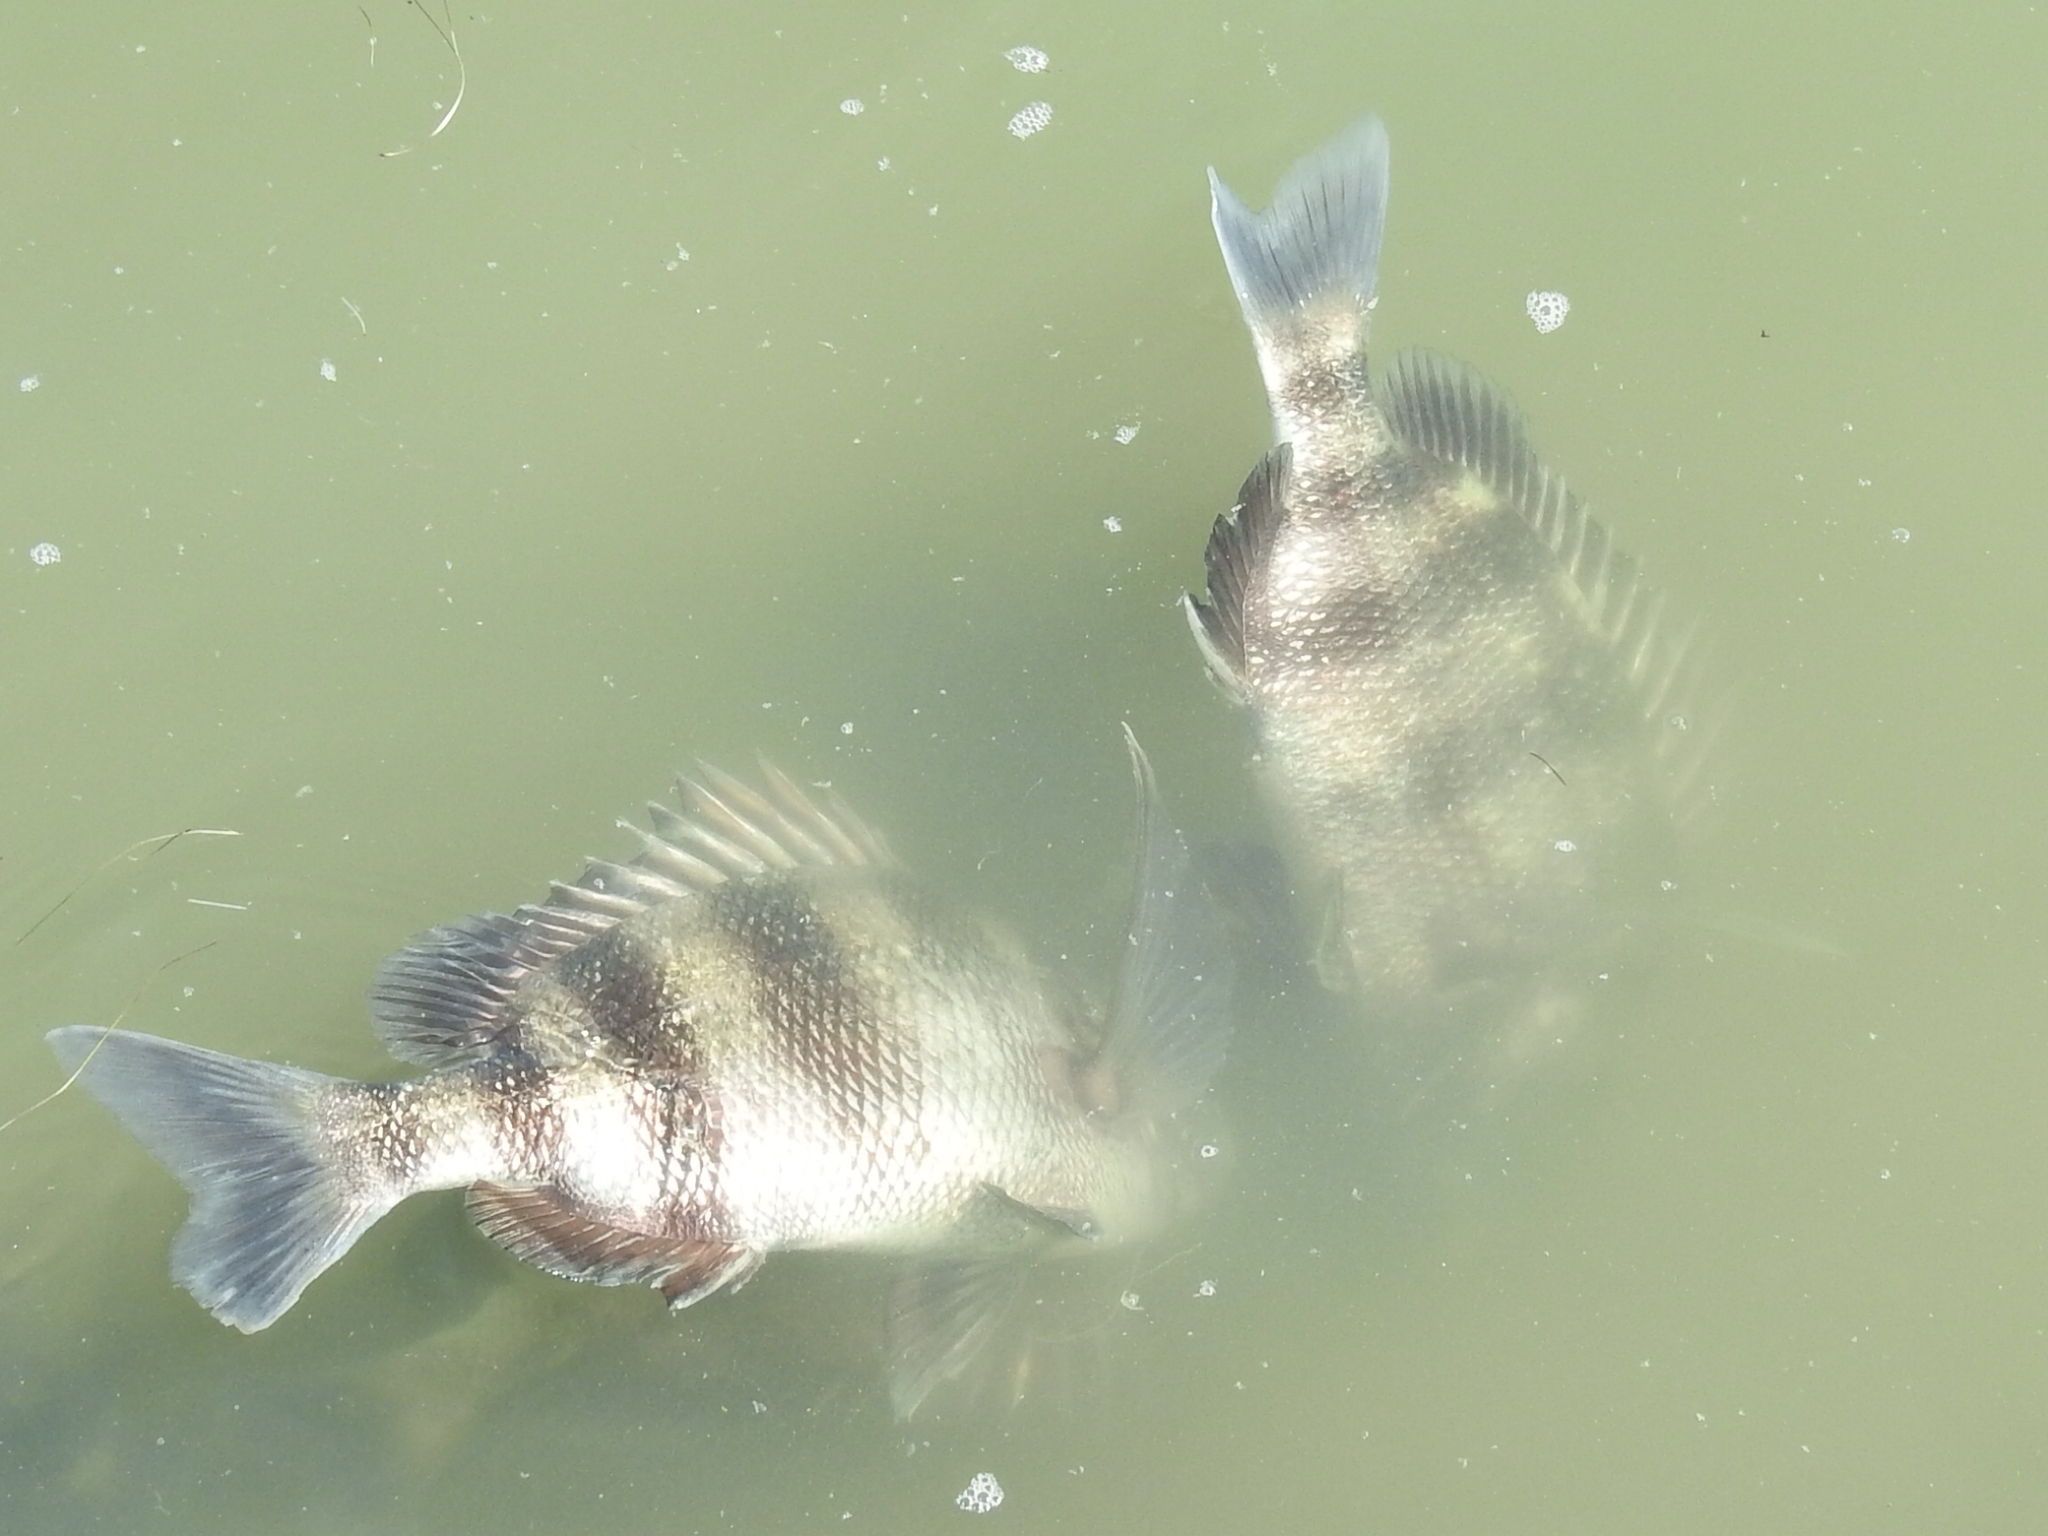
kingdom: Animalia
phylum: Chordata
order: Perciformes
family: Sparidae
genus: Archosargus
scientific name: Archosargus probatocephalus
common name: Sheepshead
